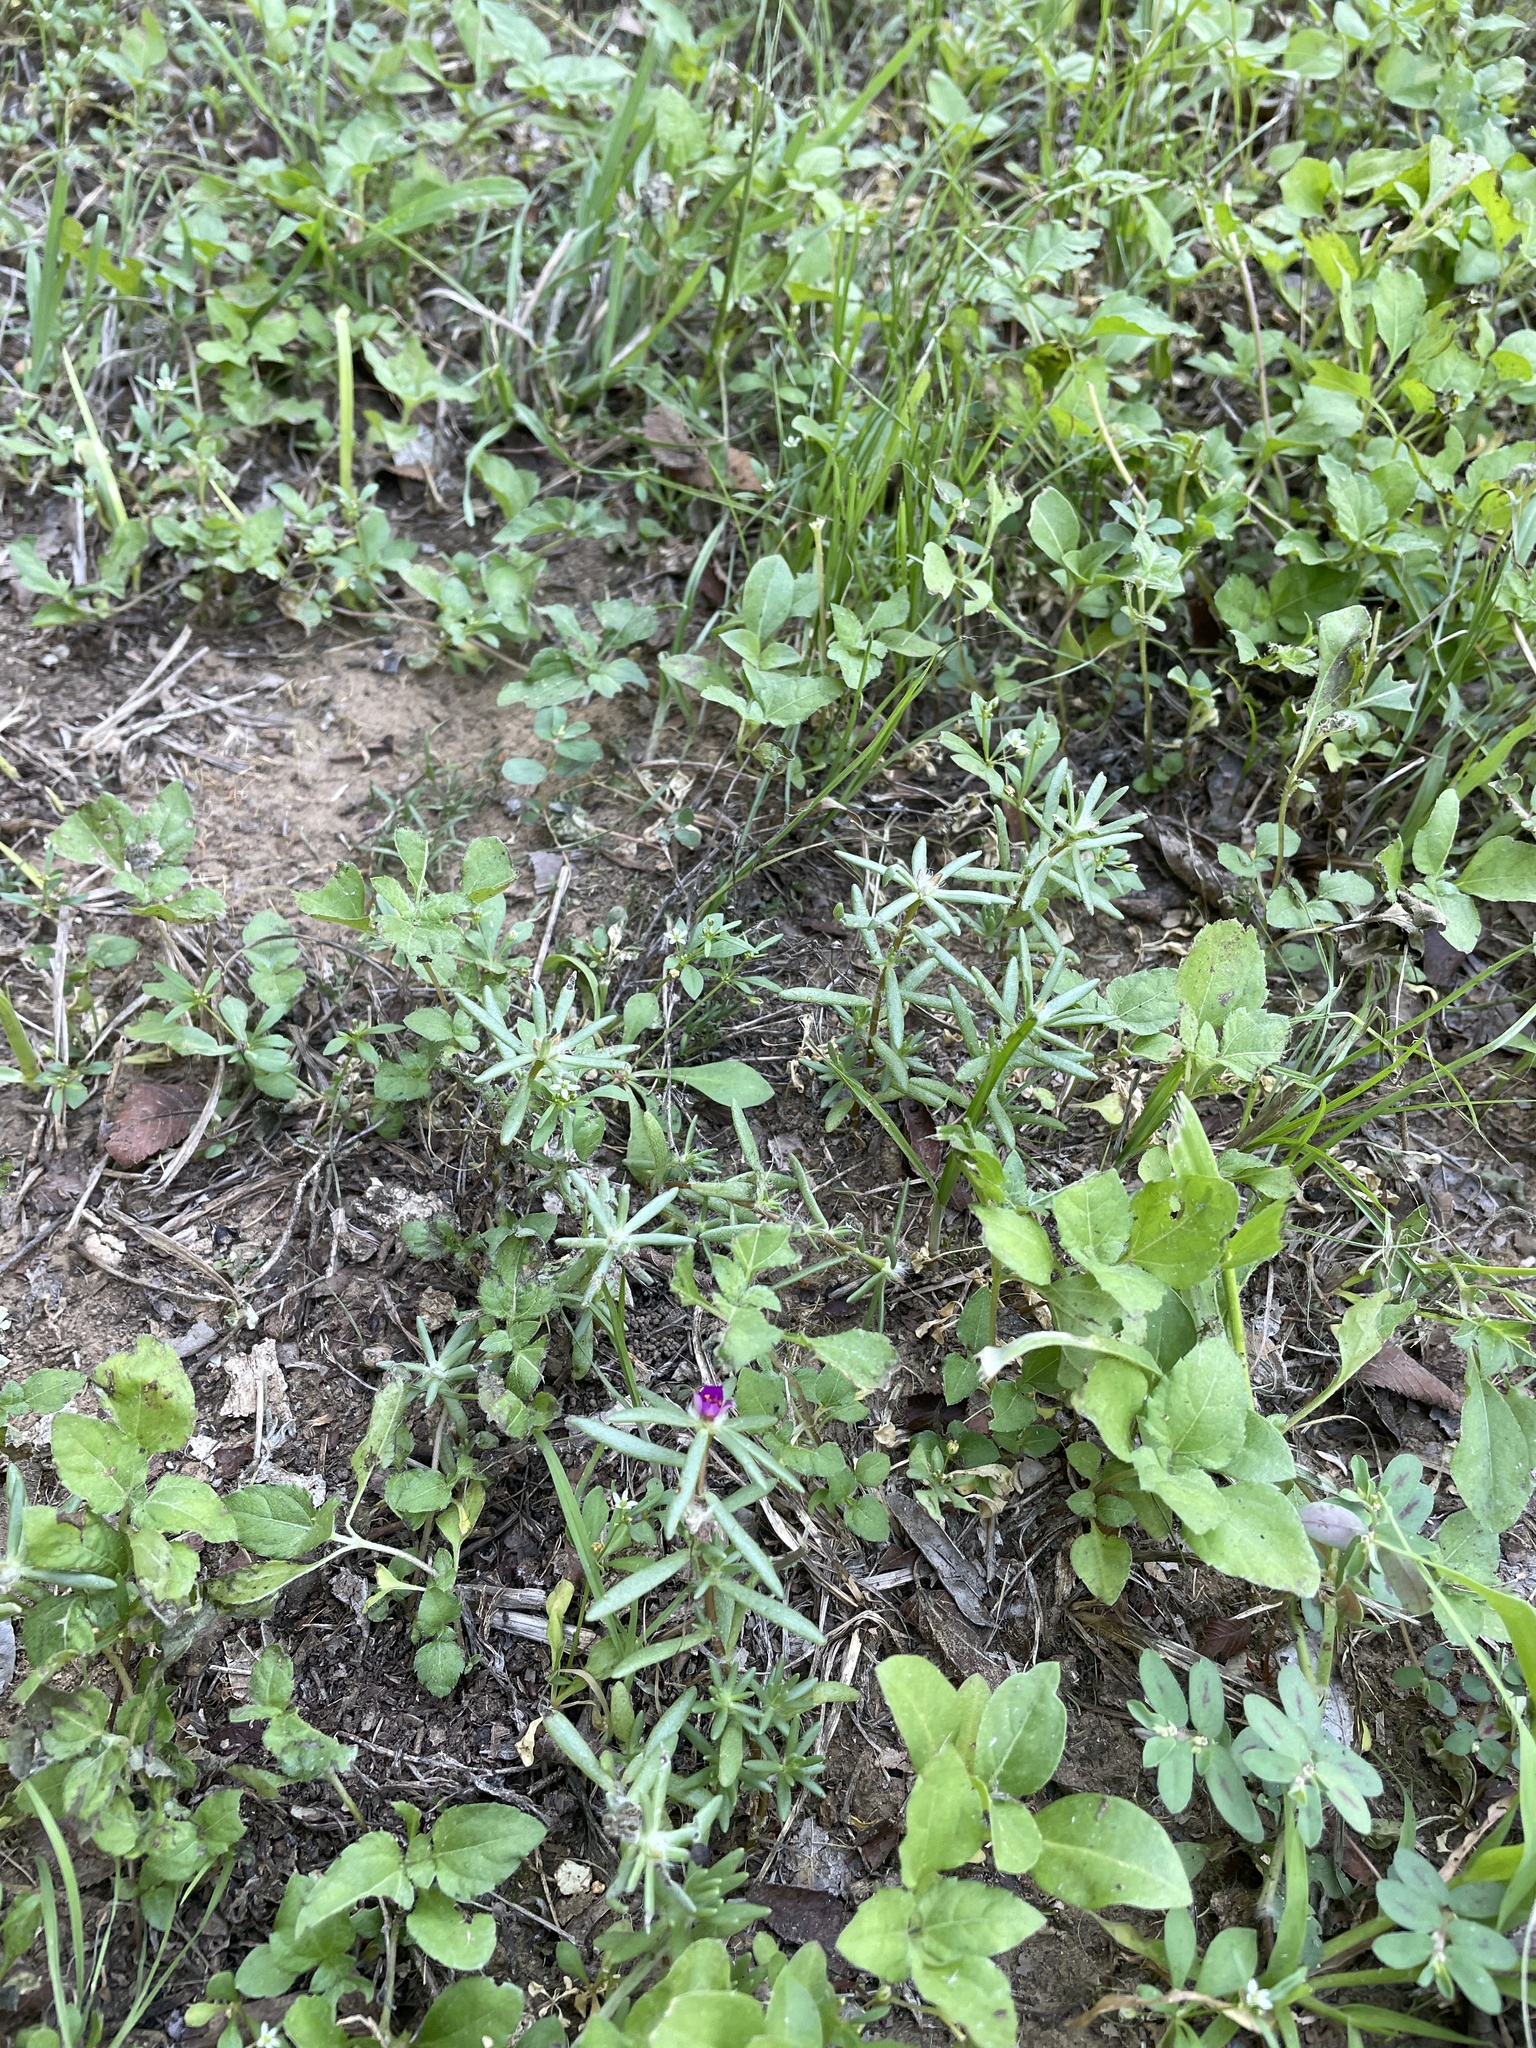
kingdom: Plantae
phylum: Tracheophyta
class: Magnoliopsida
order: Caryophyllales
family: Portulacaceae
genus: Portulaca
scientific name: Portulaca pilosa
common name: Kiss me quick
